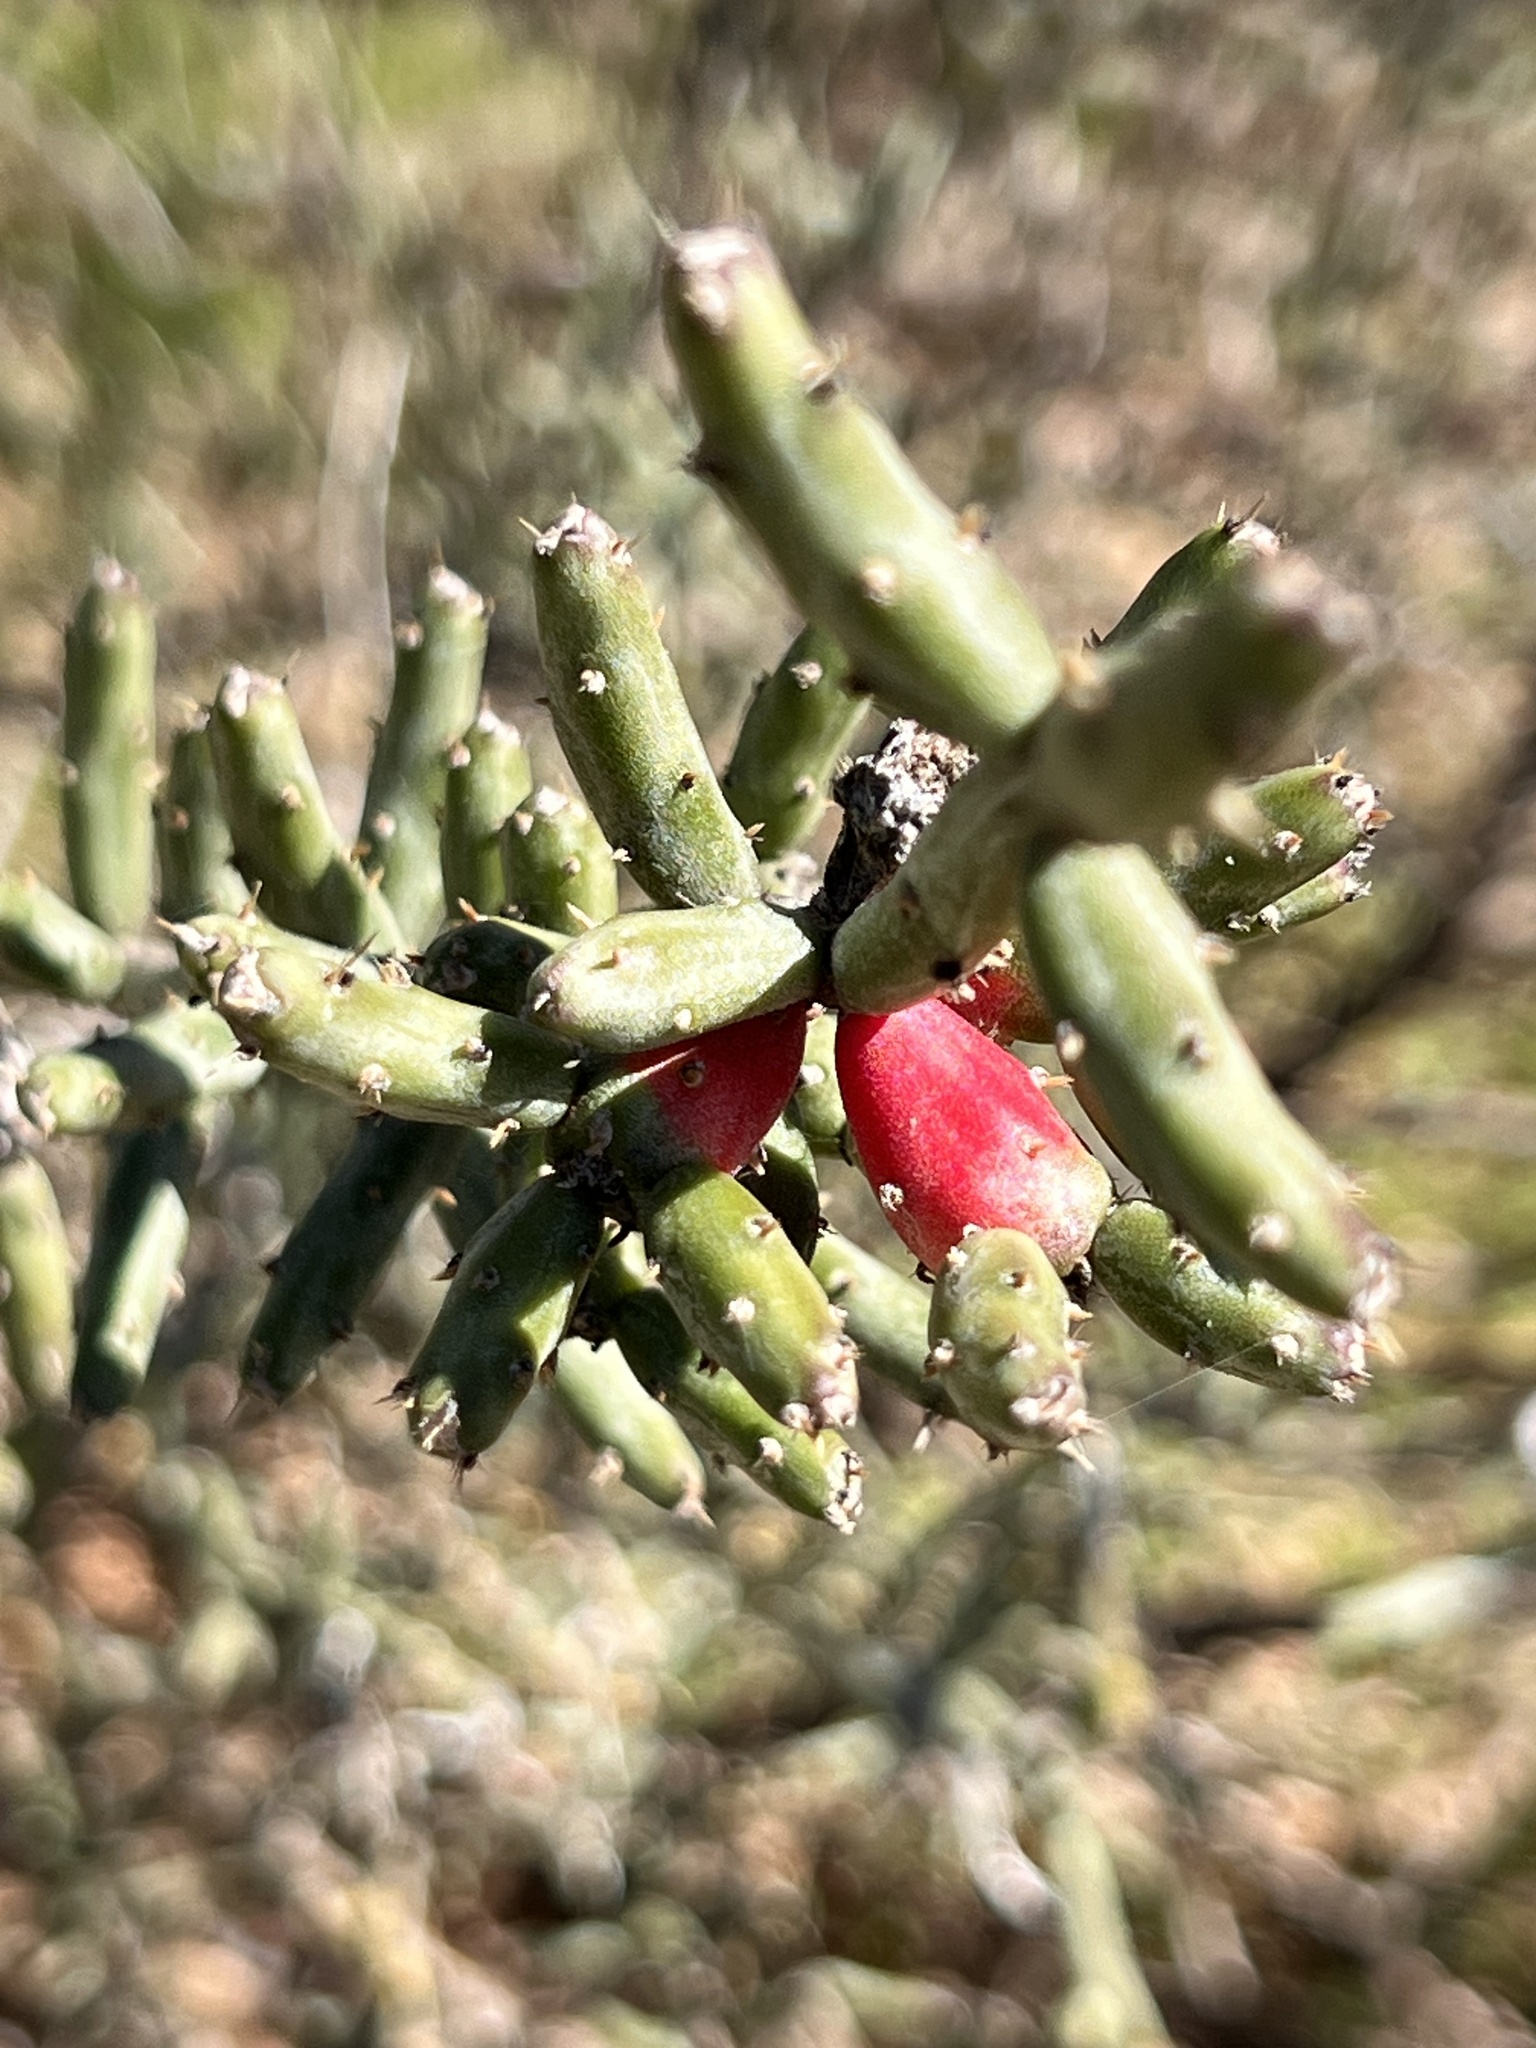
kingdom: Plantae
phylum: Tracheophyta
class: Magnoliopsida
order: Caryophyllales
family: Cactaceae
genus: Cylindropuntia
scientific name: Cylindropuntia leptocaulis
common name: Christmas cactus
